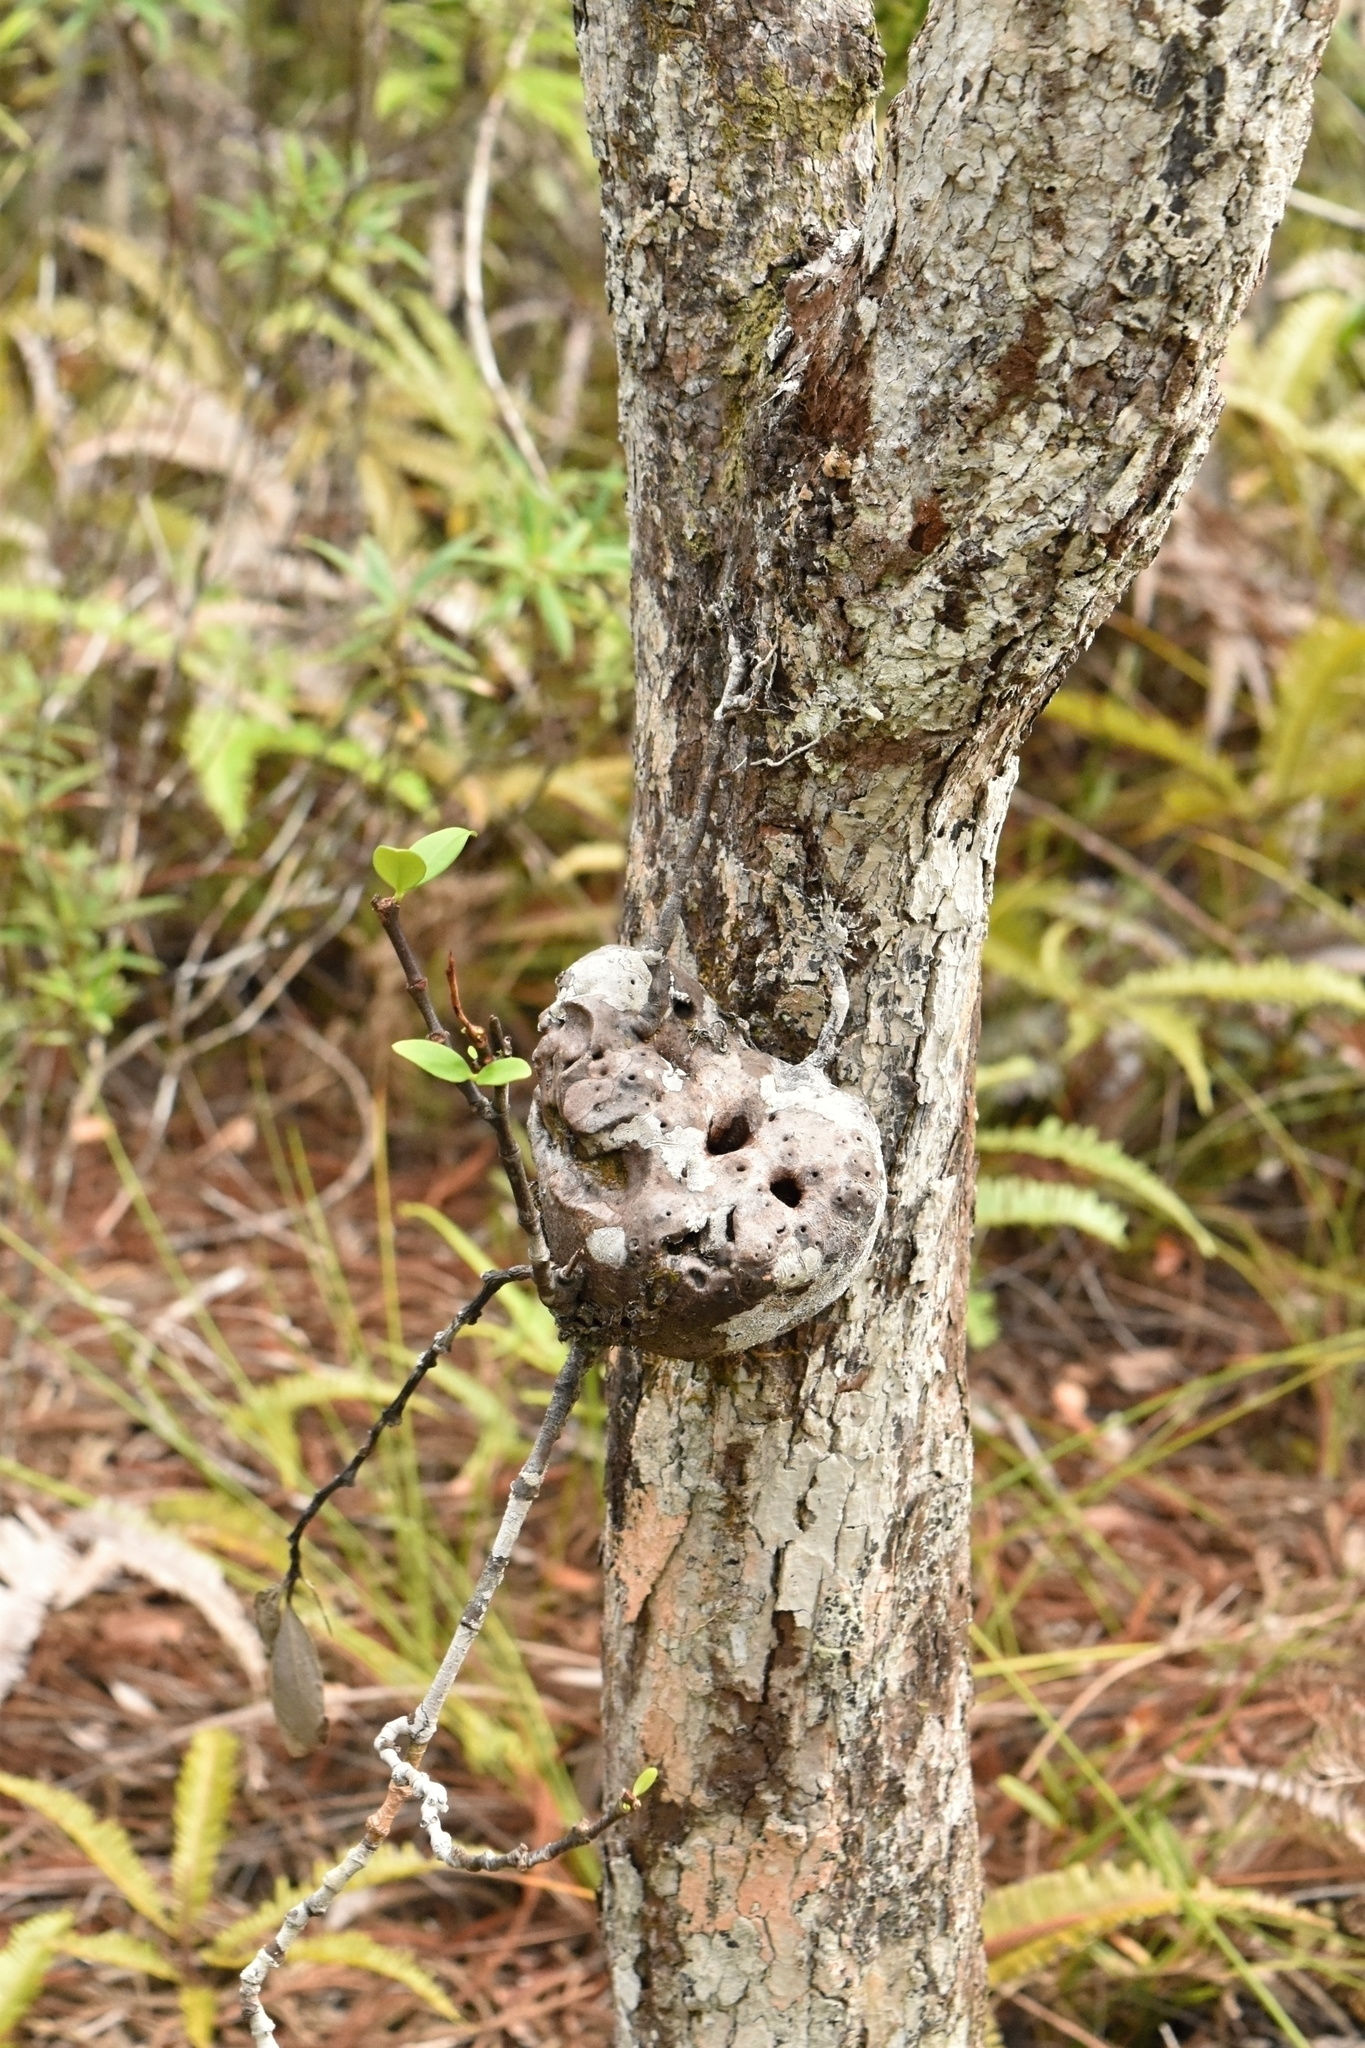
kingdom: Plantae
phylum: Tracheophyta
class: Magnoliopsida
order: Gentianales
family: Rubiaceae
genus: Hydnophytum
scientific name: Hydnophytum formicarum
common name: Ant plant
